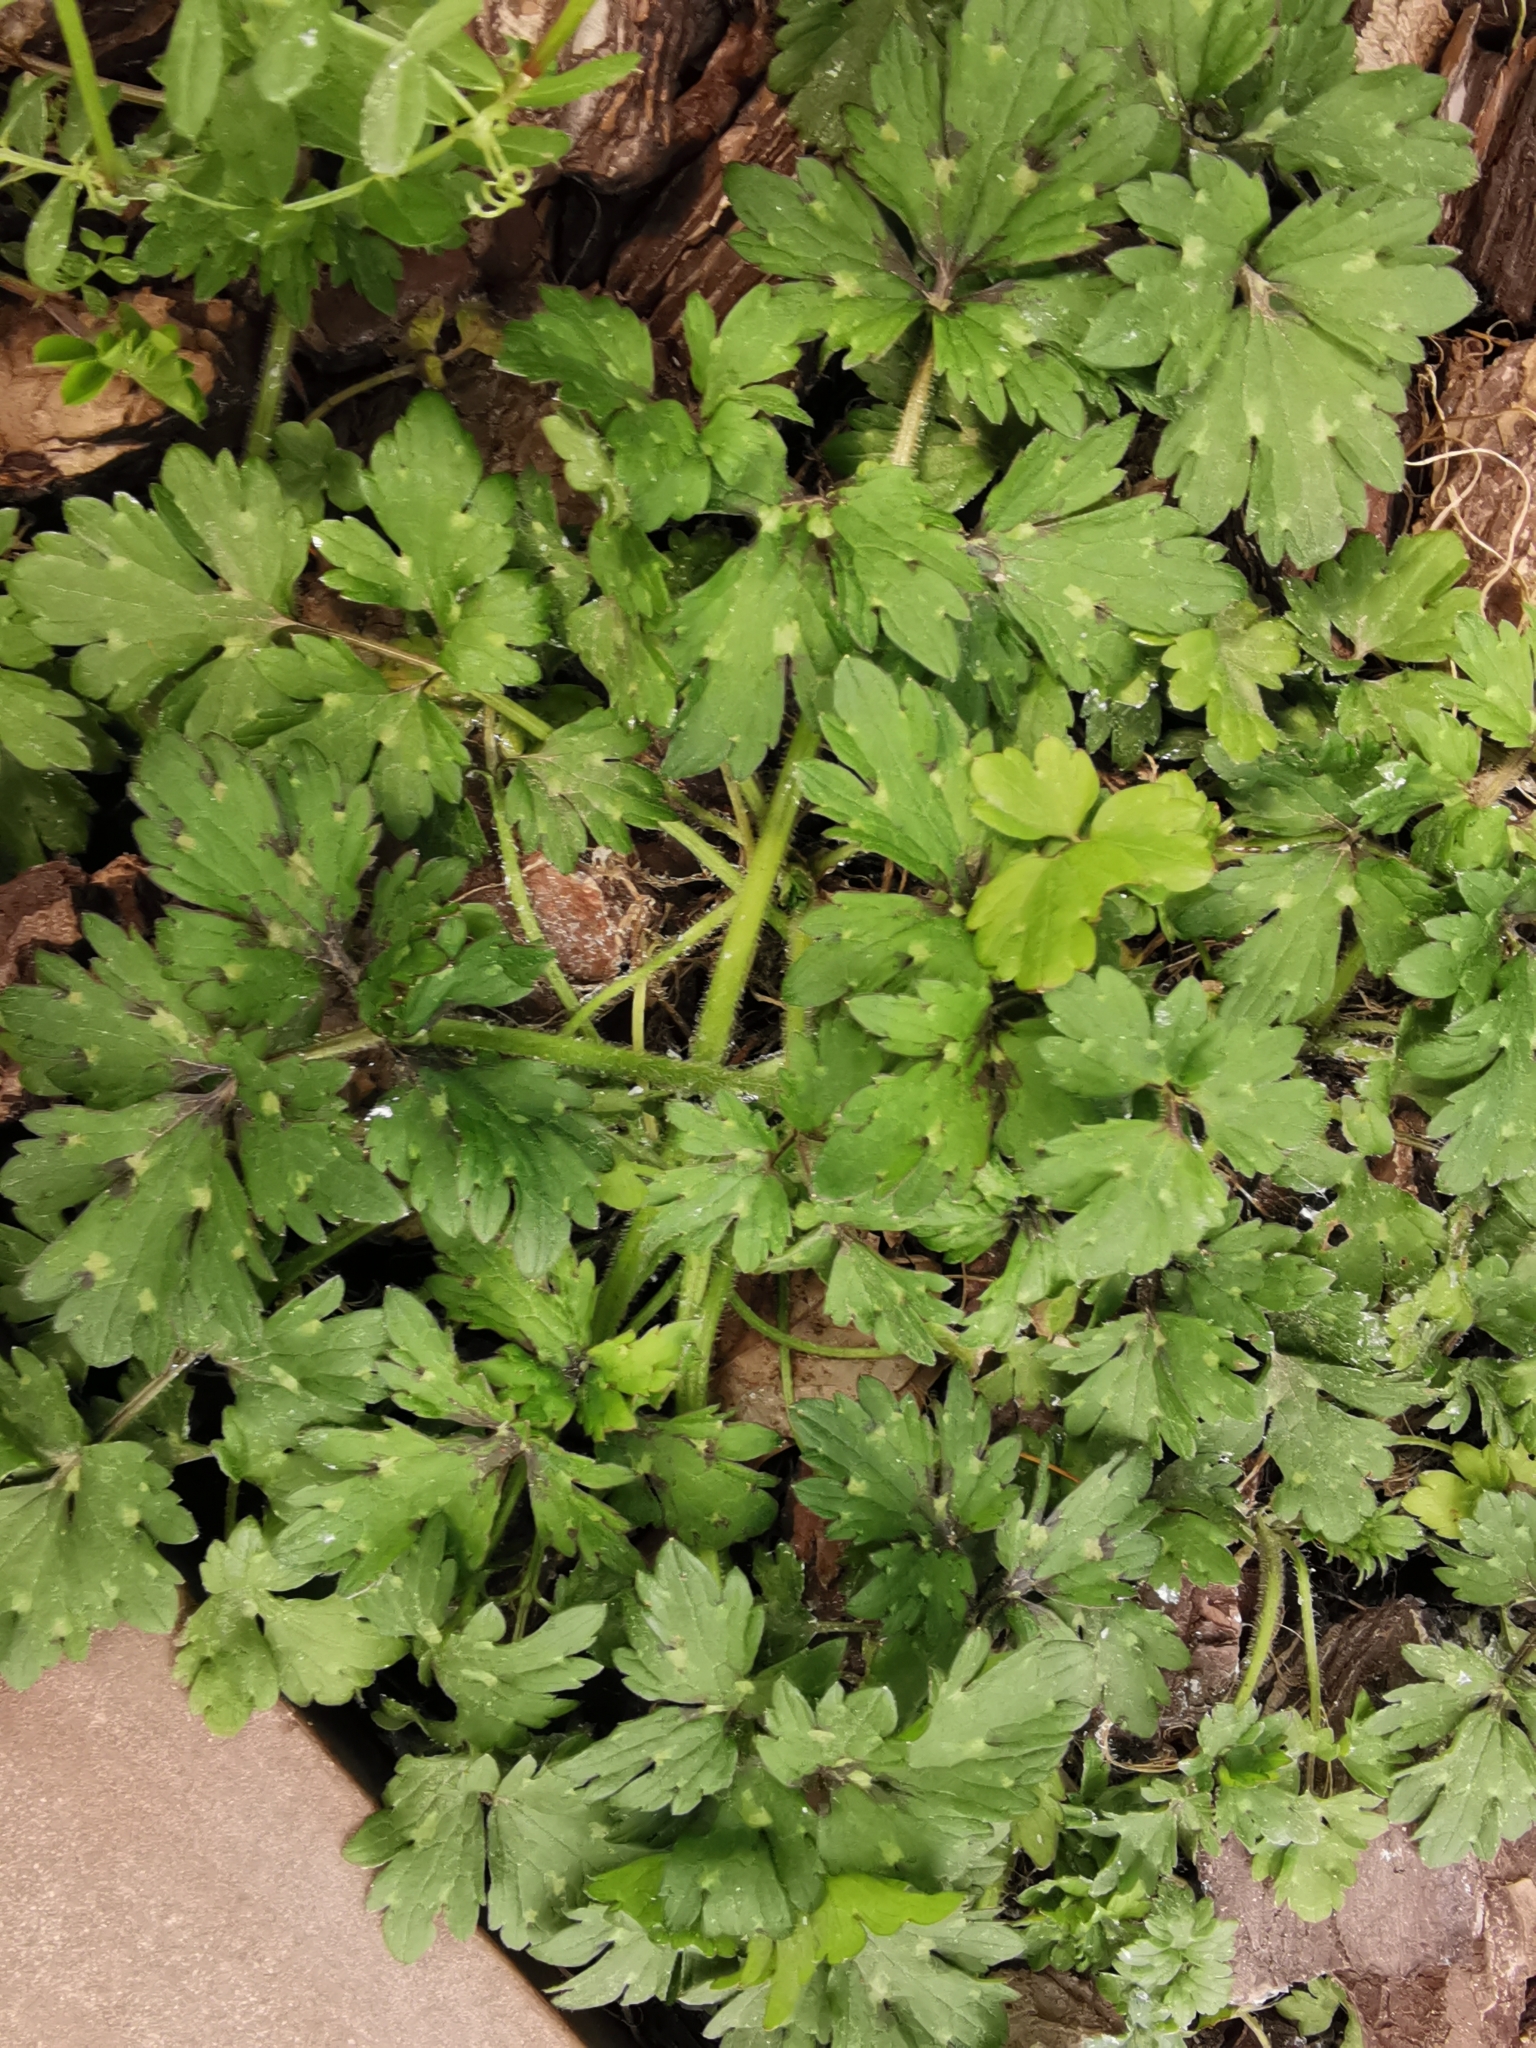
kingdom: Plantae
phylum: Tracheophyta
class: Magnoliopsida
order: Ranunculales
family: Ranunculaceae
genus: Ranunculus
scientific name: Ranunculus repens
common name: Creeping buttercup
